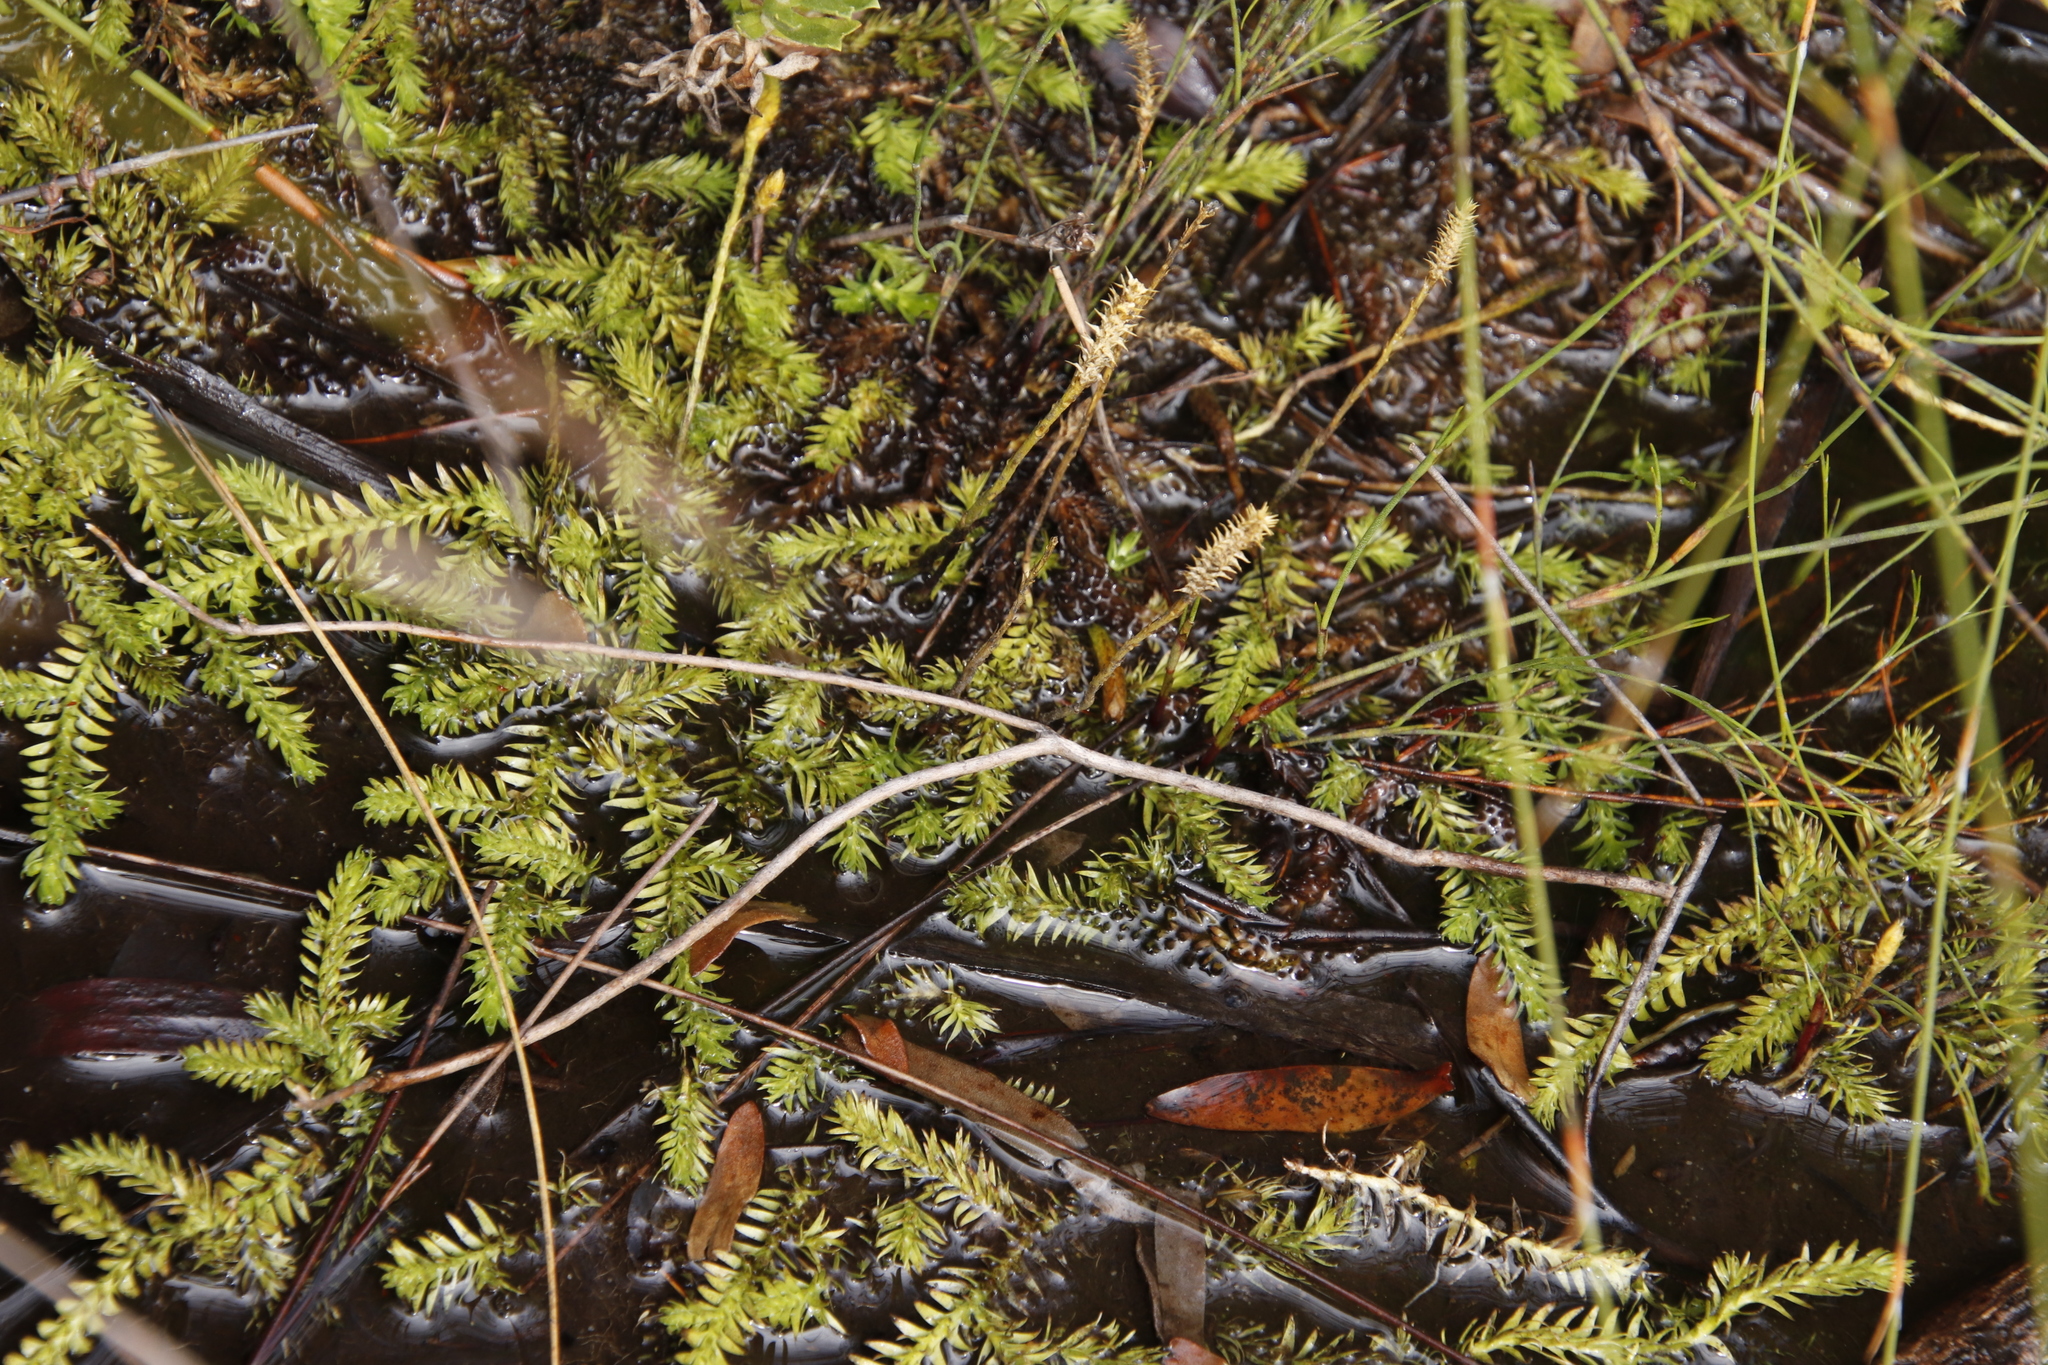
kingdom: Plantae
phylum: Tracheophyta
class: Lycopodiopsida
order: Lycopodiales
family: Lycopodiaceae
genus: Pseudolycopodiella
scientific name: Pseudolycopodiella caroliniana
